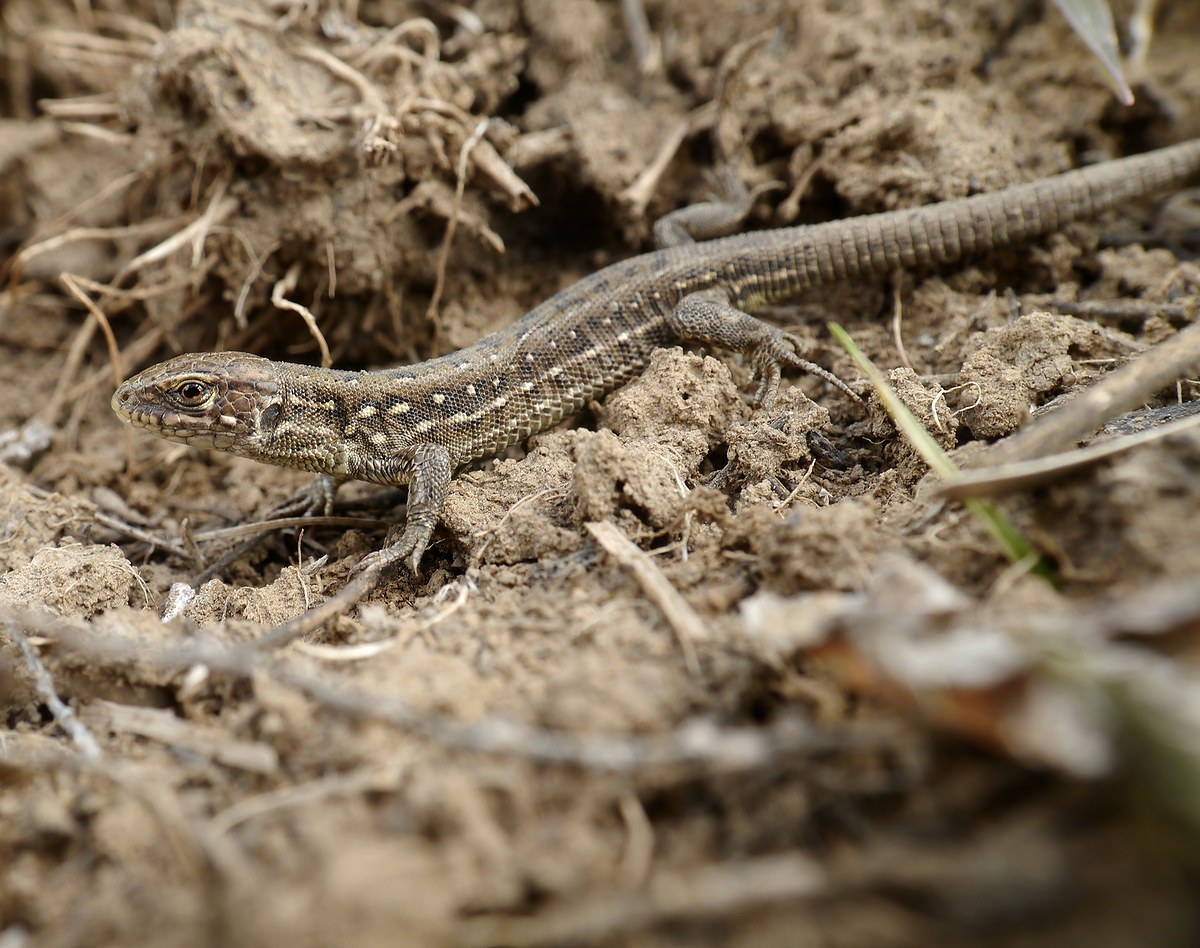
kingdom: Animalia
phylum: Chordata
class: Squamata
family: Lacertidae
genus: Lacerta
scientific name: Lacerta agilis
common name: Sand lizard
